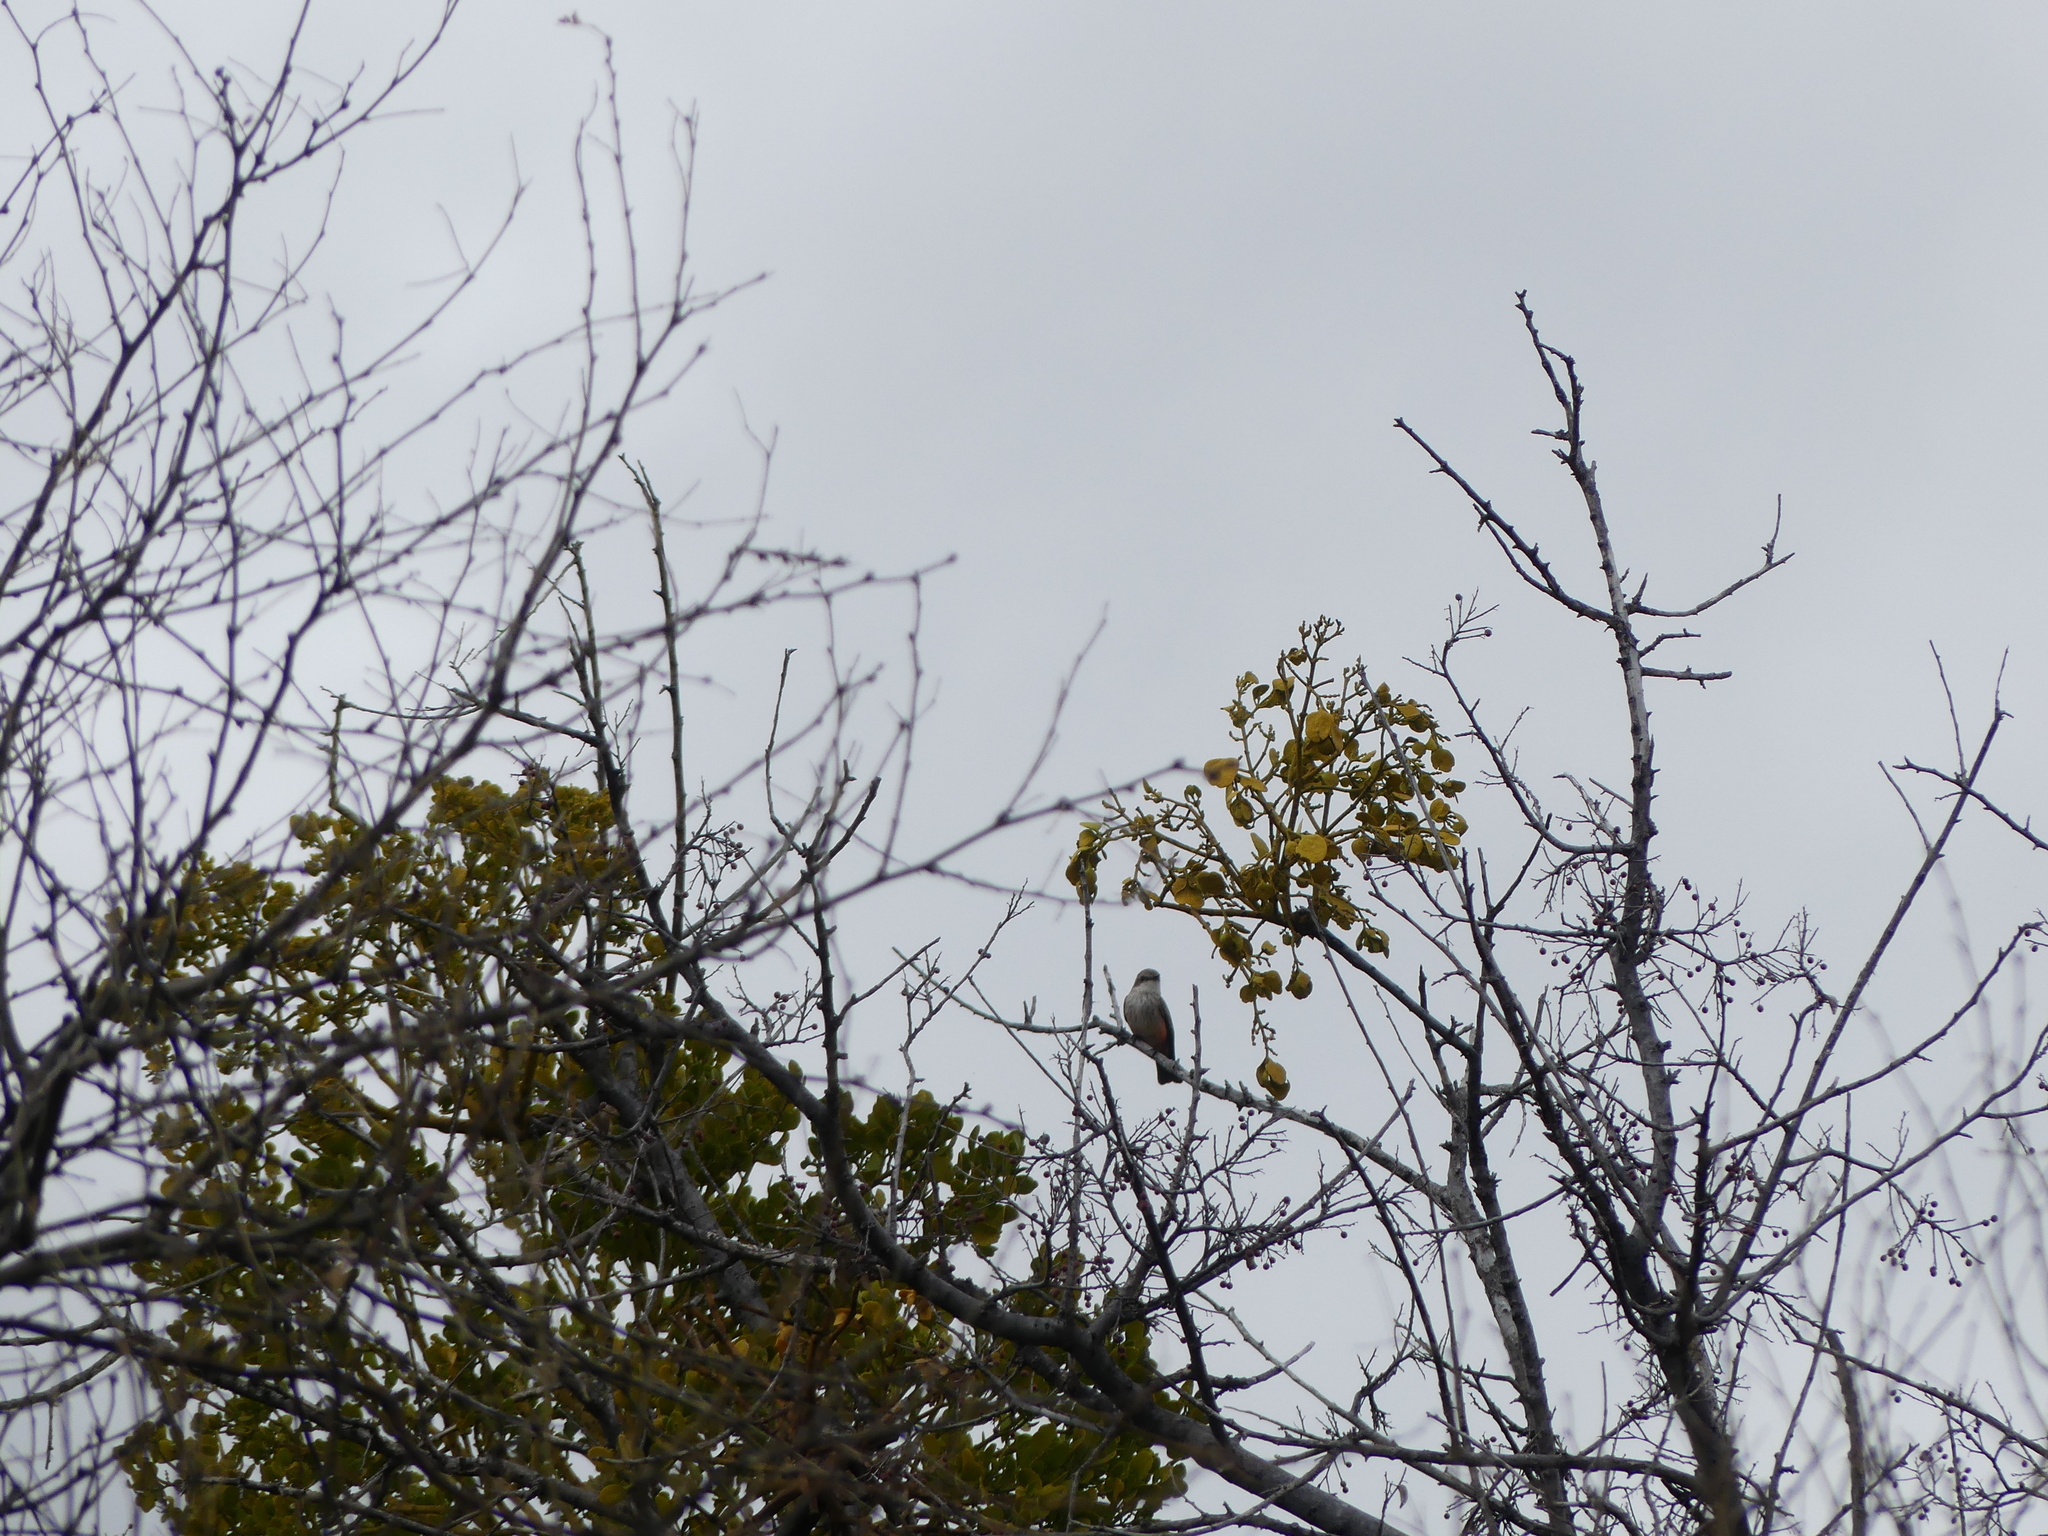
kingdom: Animalia
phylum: Chordata
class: Aves
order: Passeriformes
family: Tyrannidae
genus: Pyrocephalus
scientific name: Pyrocephalus rubinus
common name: Vermilion flycatcher
